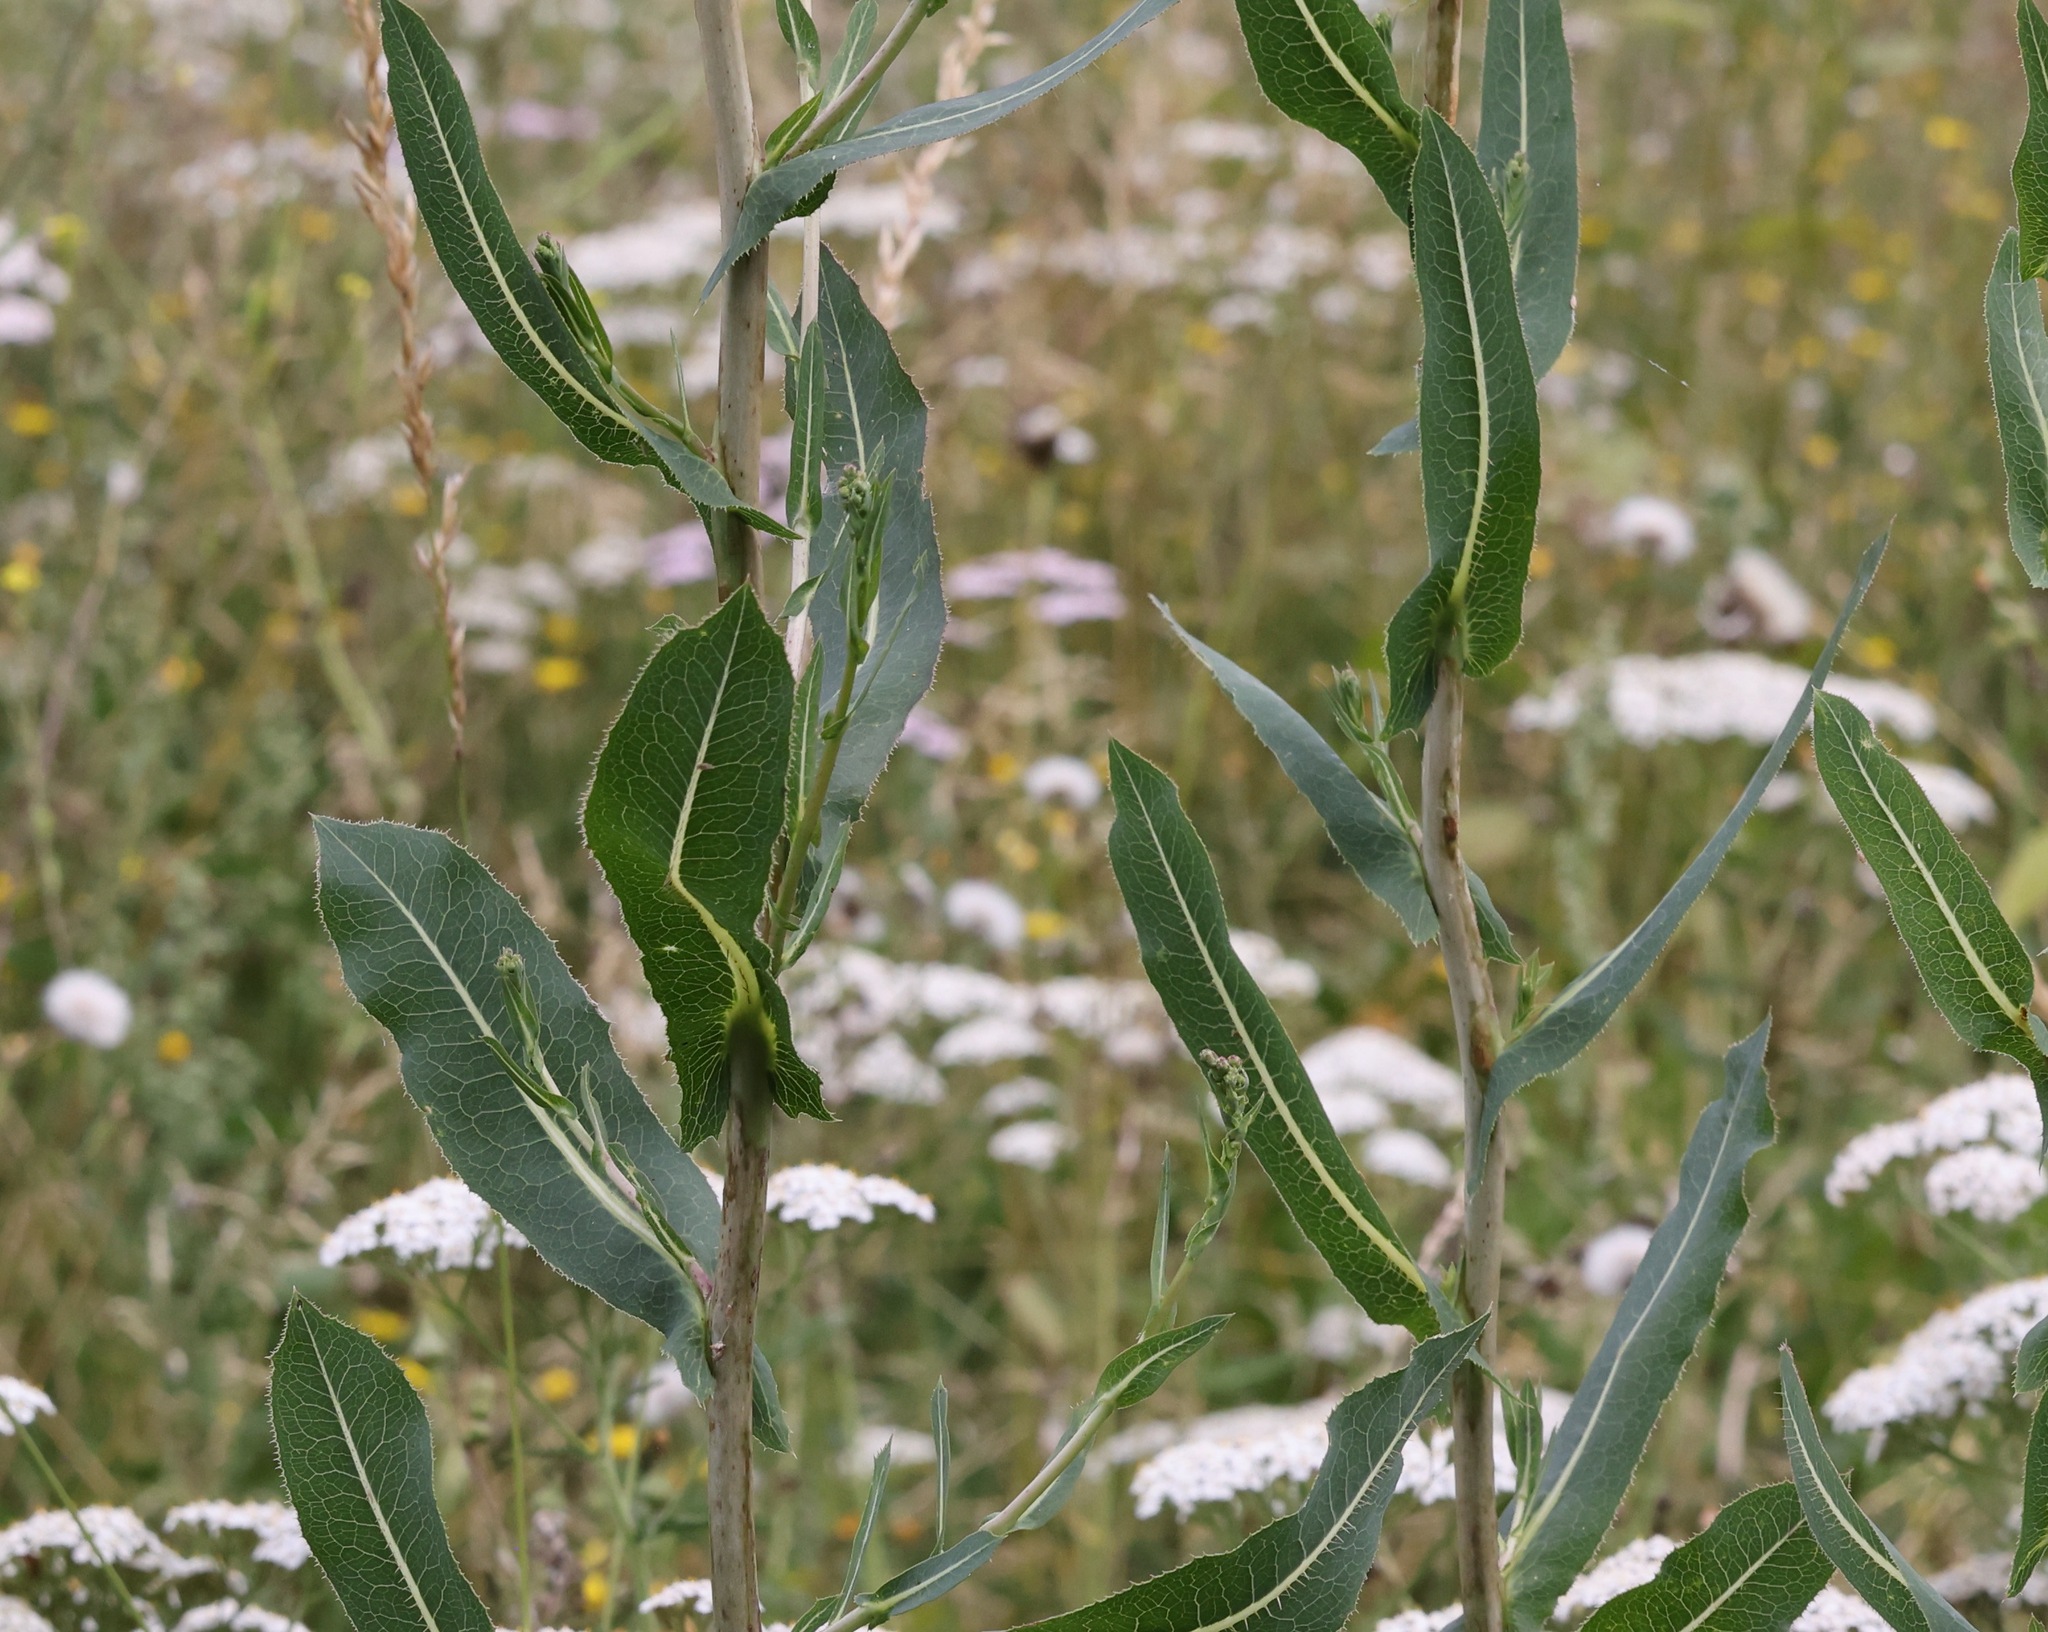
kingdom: Plantae
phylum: Tracheophyta
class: Magnoliopsida
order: Asterales
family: Asteraceae
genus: Lactuca
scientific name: Lactuca serriola
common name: Prickly lettuce
